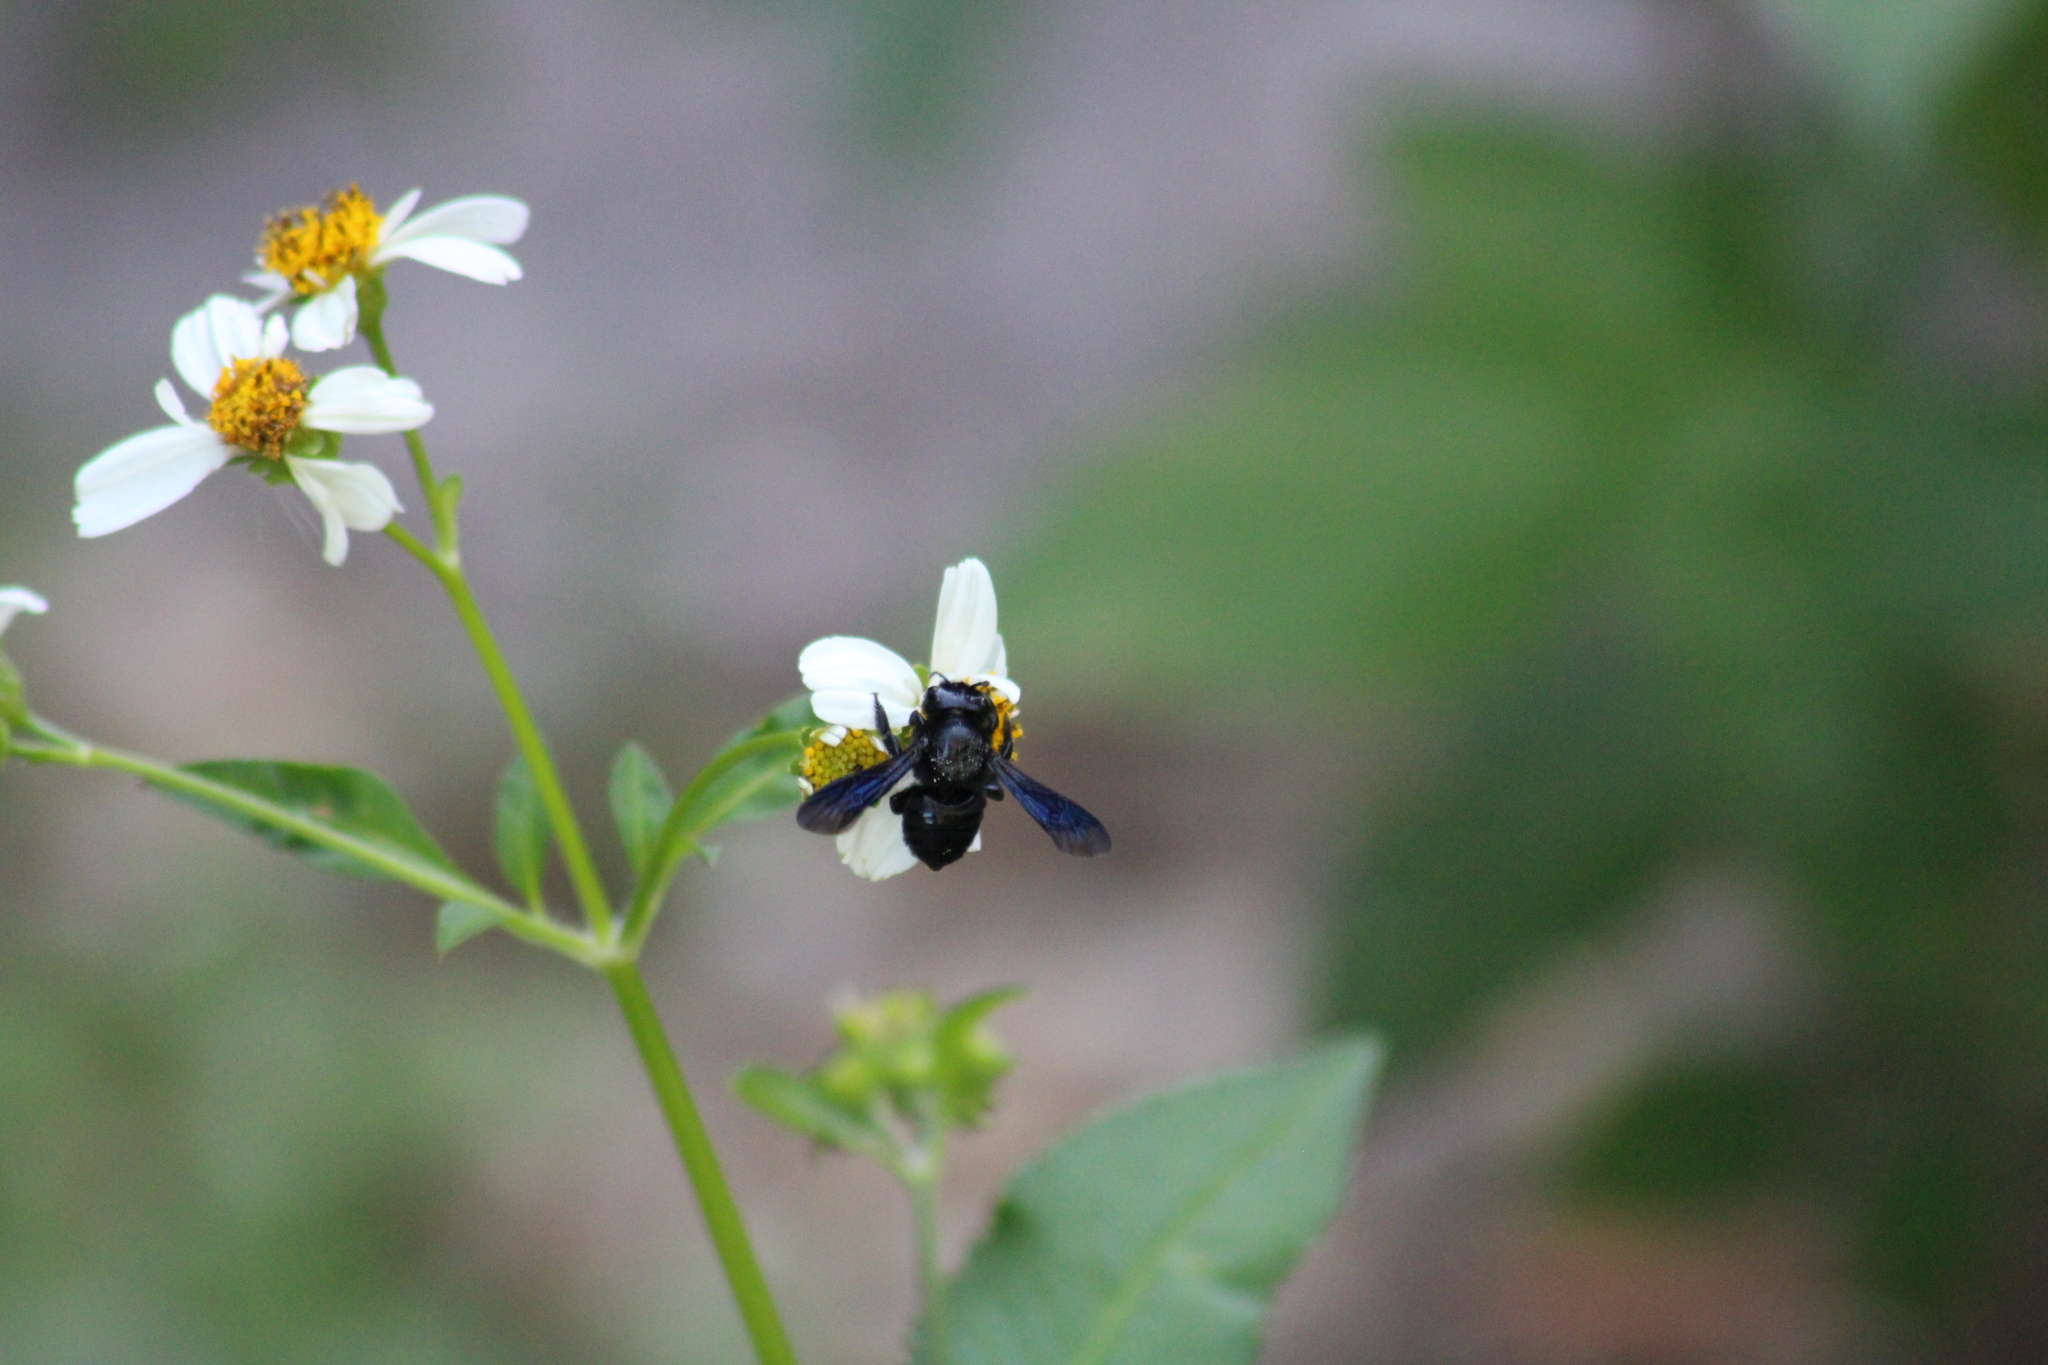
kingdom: Animalia
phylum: Arthropoda
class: Insecta
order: Hymenoptera
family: Megachilidae
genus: Megachile
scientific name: Megachile xylocopoides
